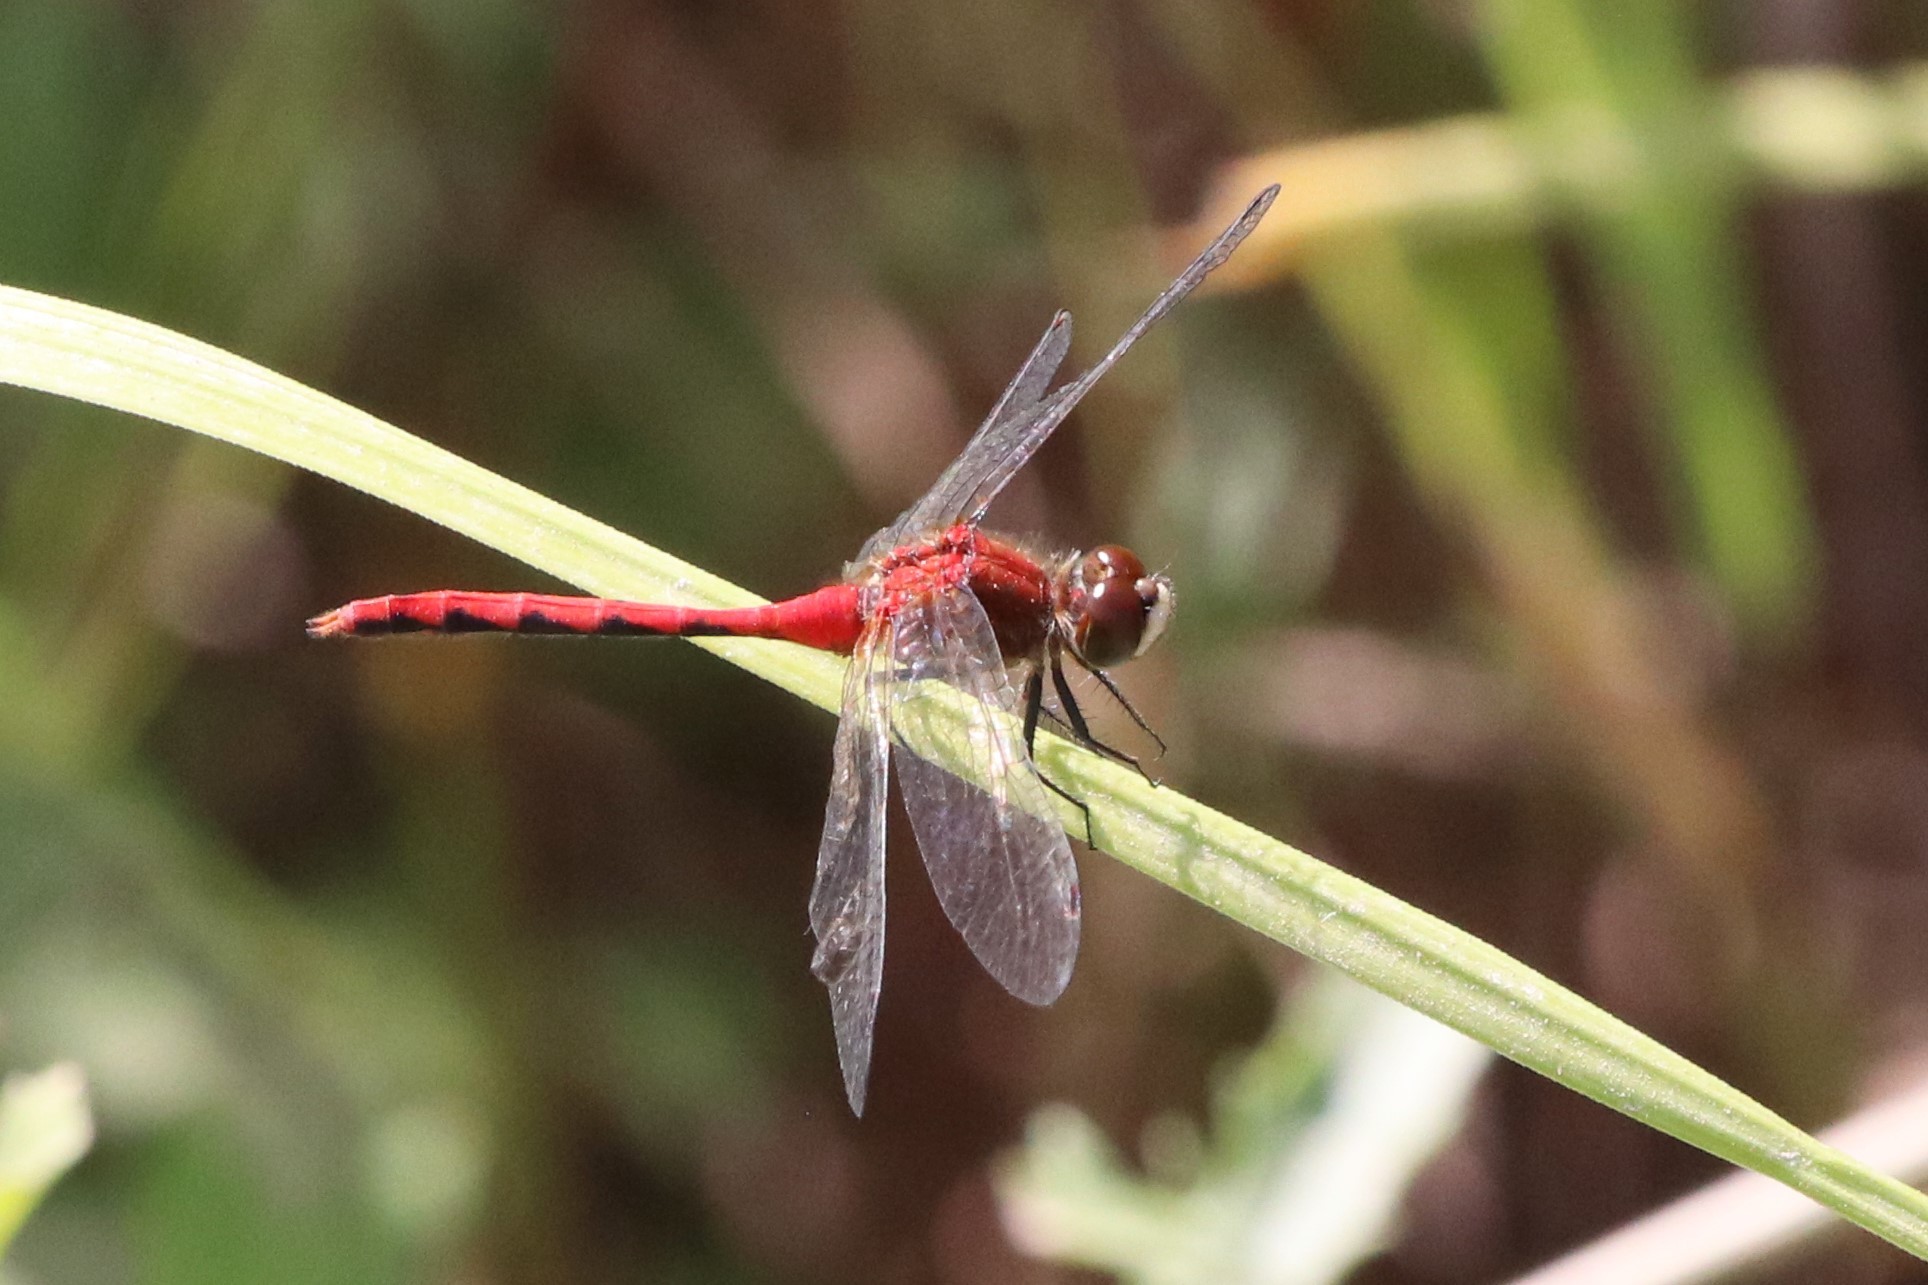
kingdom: Animalia
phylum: Arthropoda
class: Insecta
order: Odonata
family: Libellulidae
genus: Sympetrum
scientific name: Sympetrum obtrusum
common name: White-faced meadowhawk
